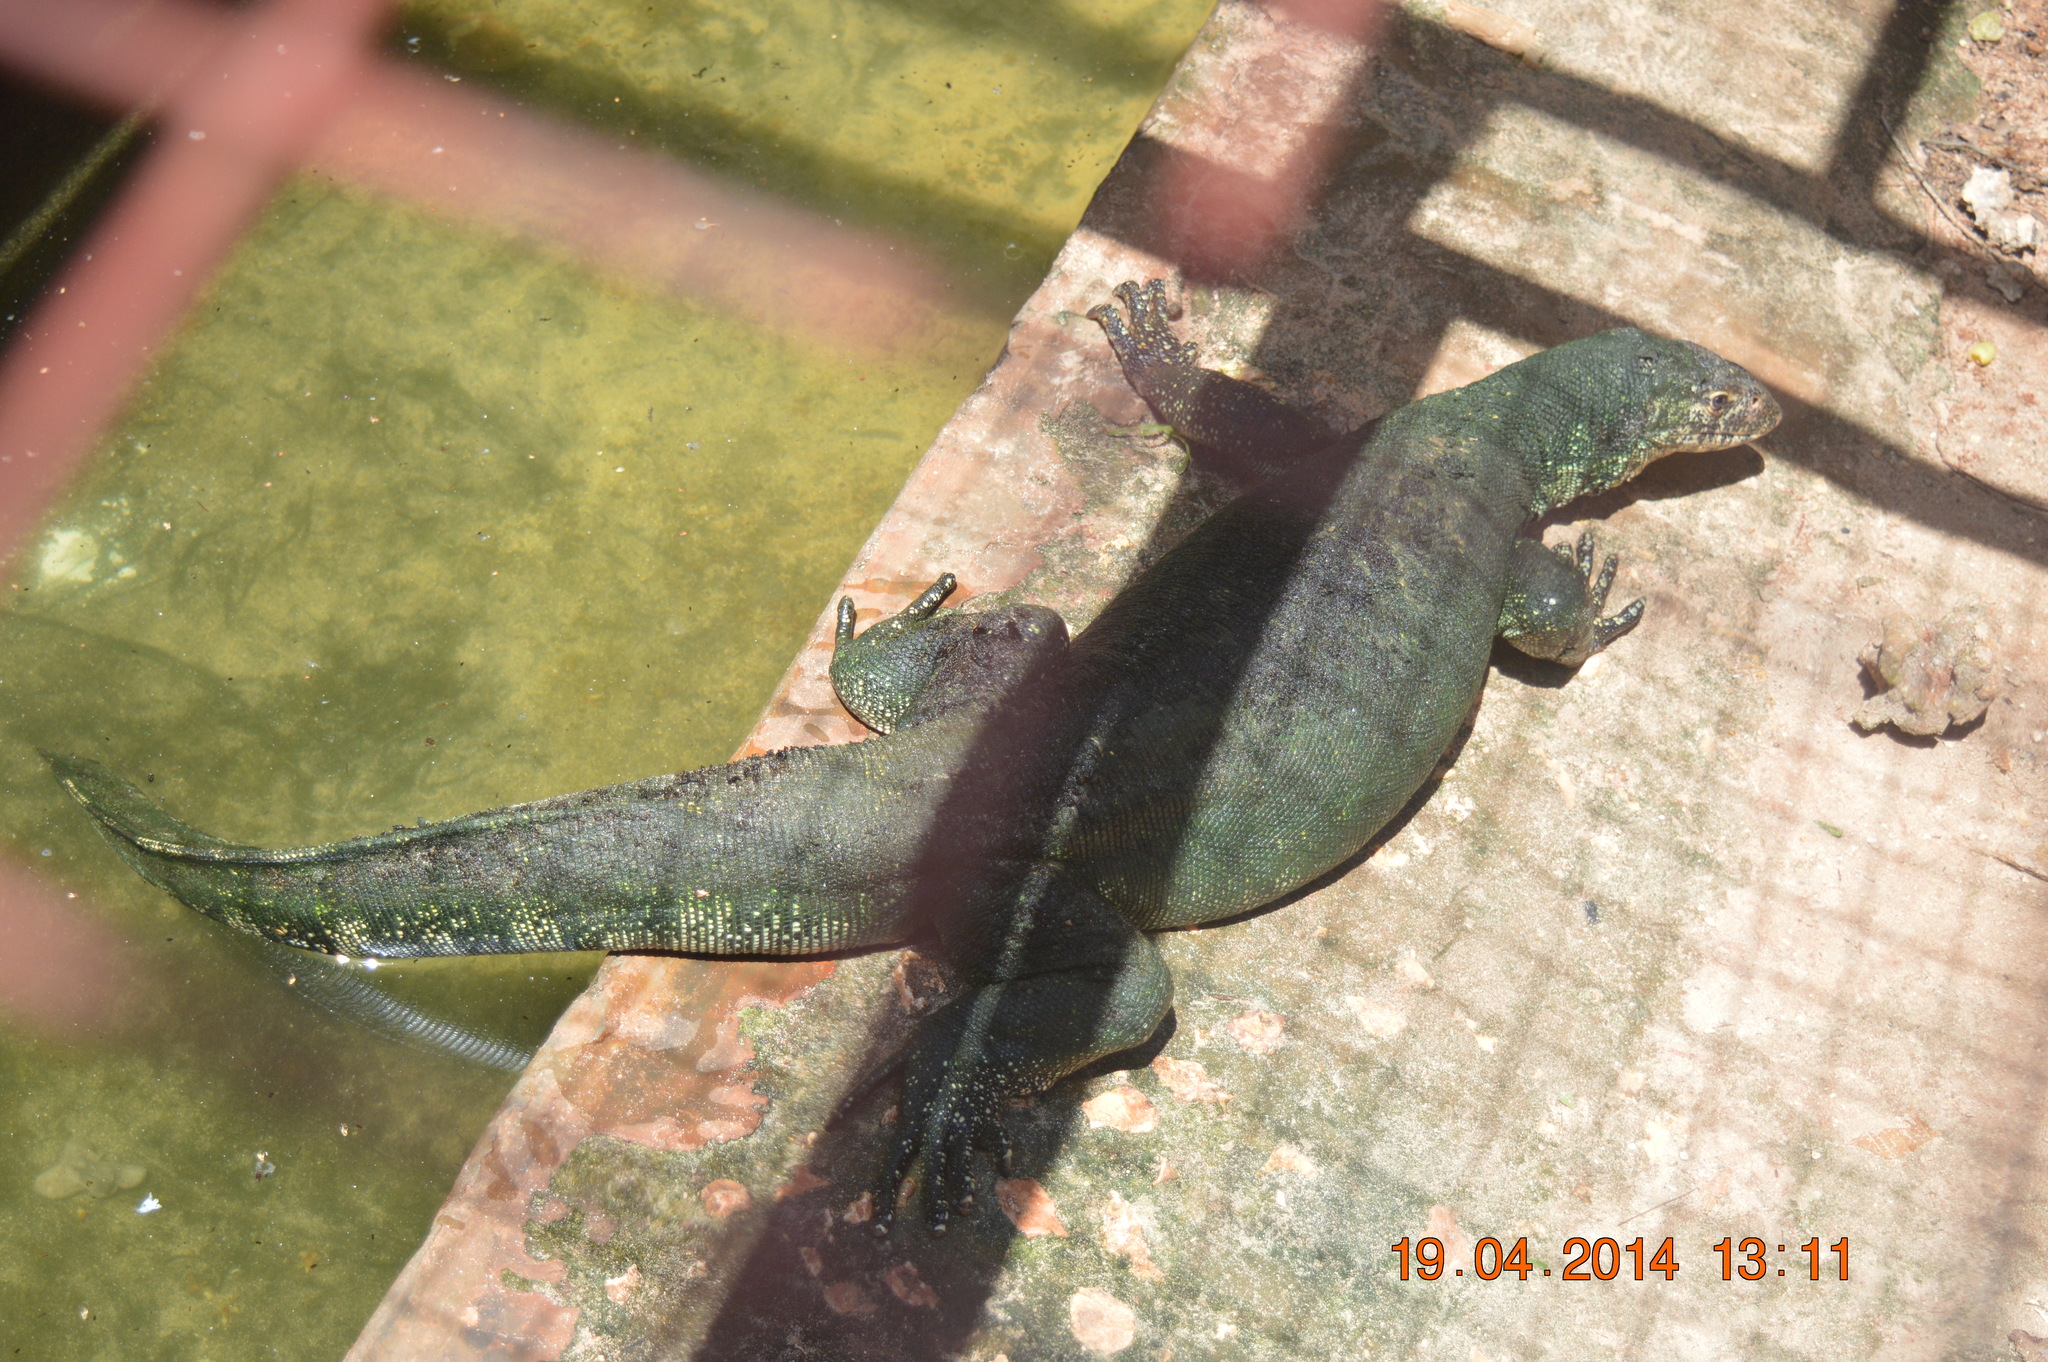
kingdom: Animalia
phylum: Chordata
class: Squamata
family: Varanidae
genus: Varanus
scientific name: Varanus niloticus
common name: Nile monitor
